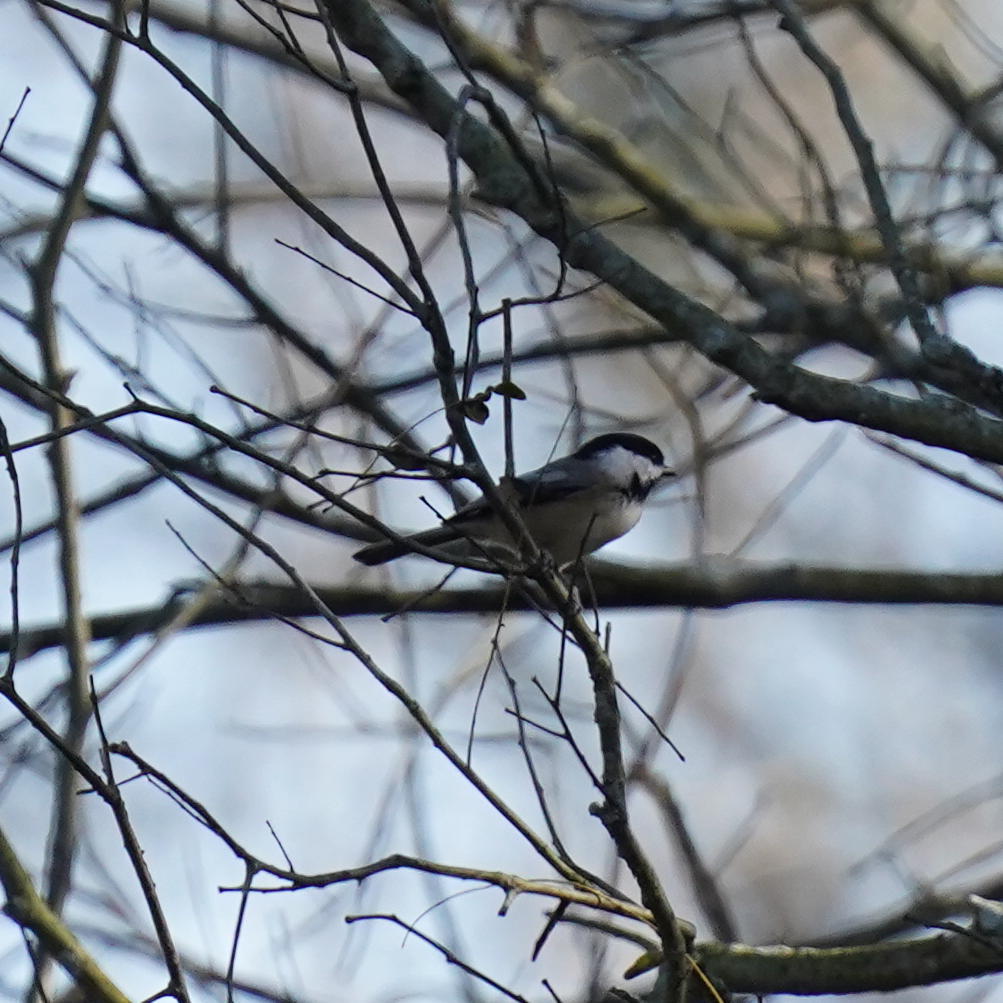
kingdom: Animalia
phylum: Chordata
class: Aves
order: Passeriformes
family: Paridae
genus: Poecile
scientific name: Poecile atricapillus
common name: Black-capped chickadee
